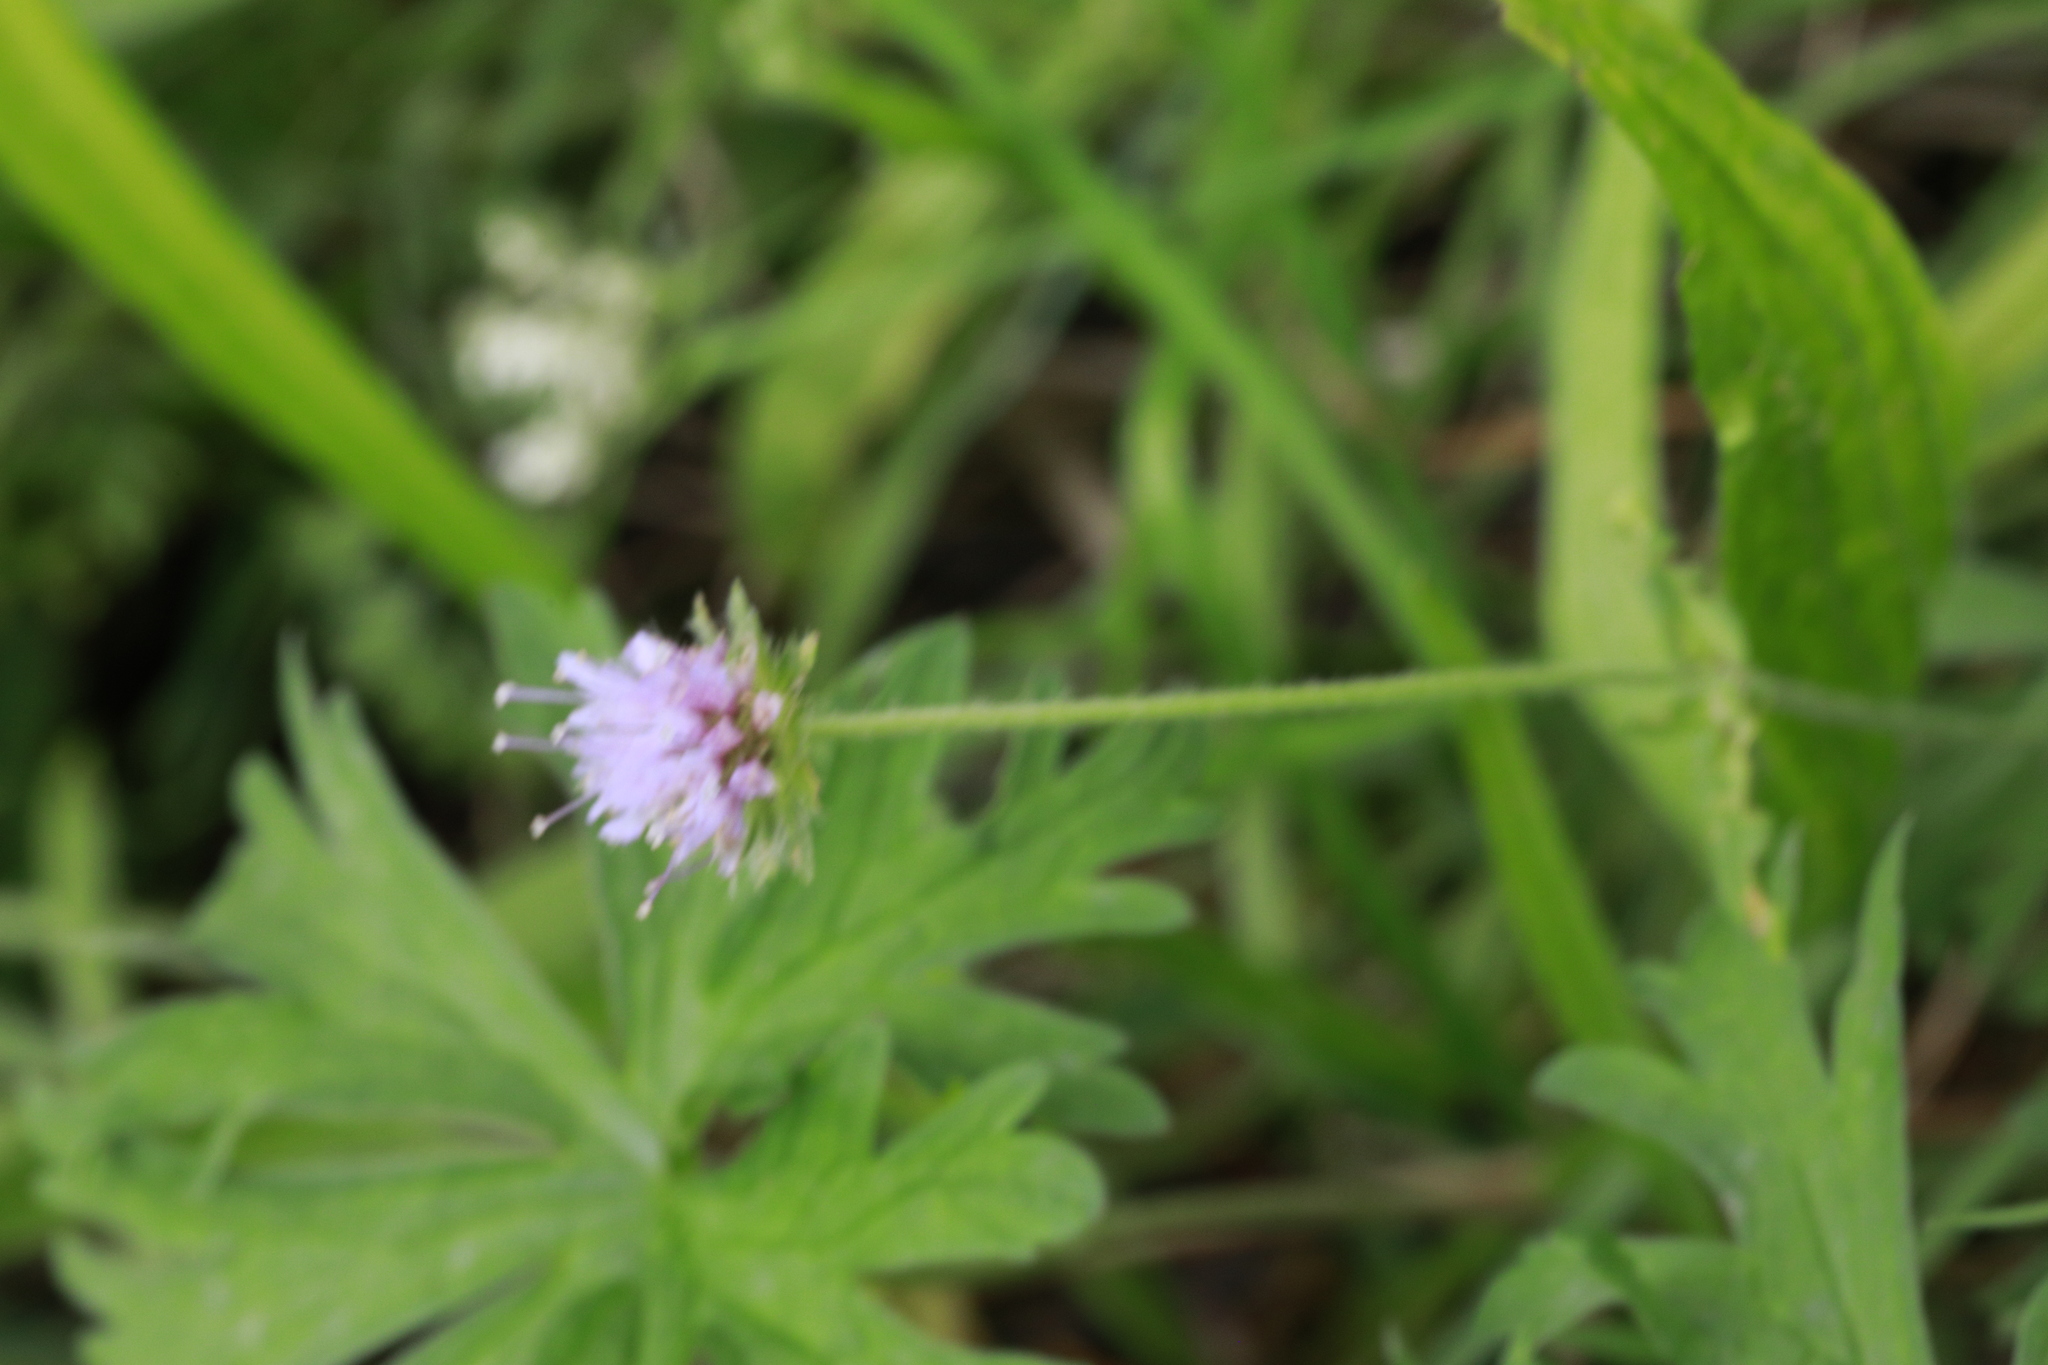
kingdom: Plantae
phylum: Tracheophyta
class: Magnoliopsida
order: Dipsacales
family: Caprifoliaceae
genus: Knautia
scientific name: Knautia arvensis
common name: Field scabiosa
